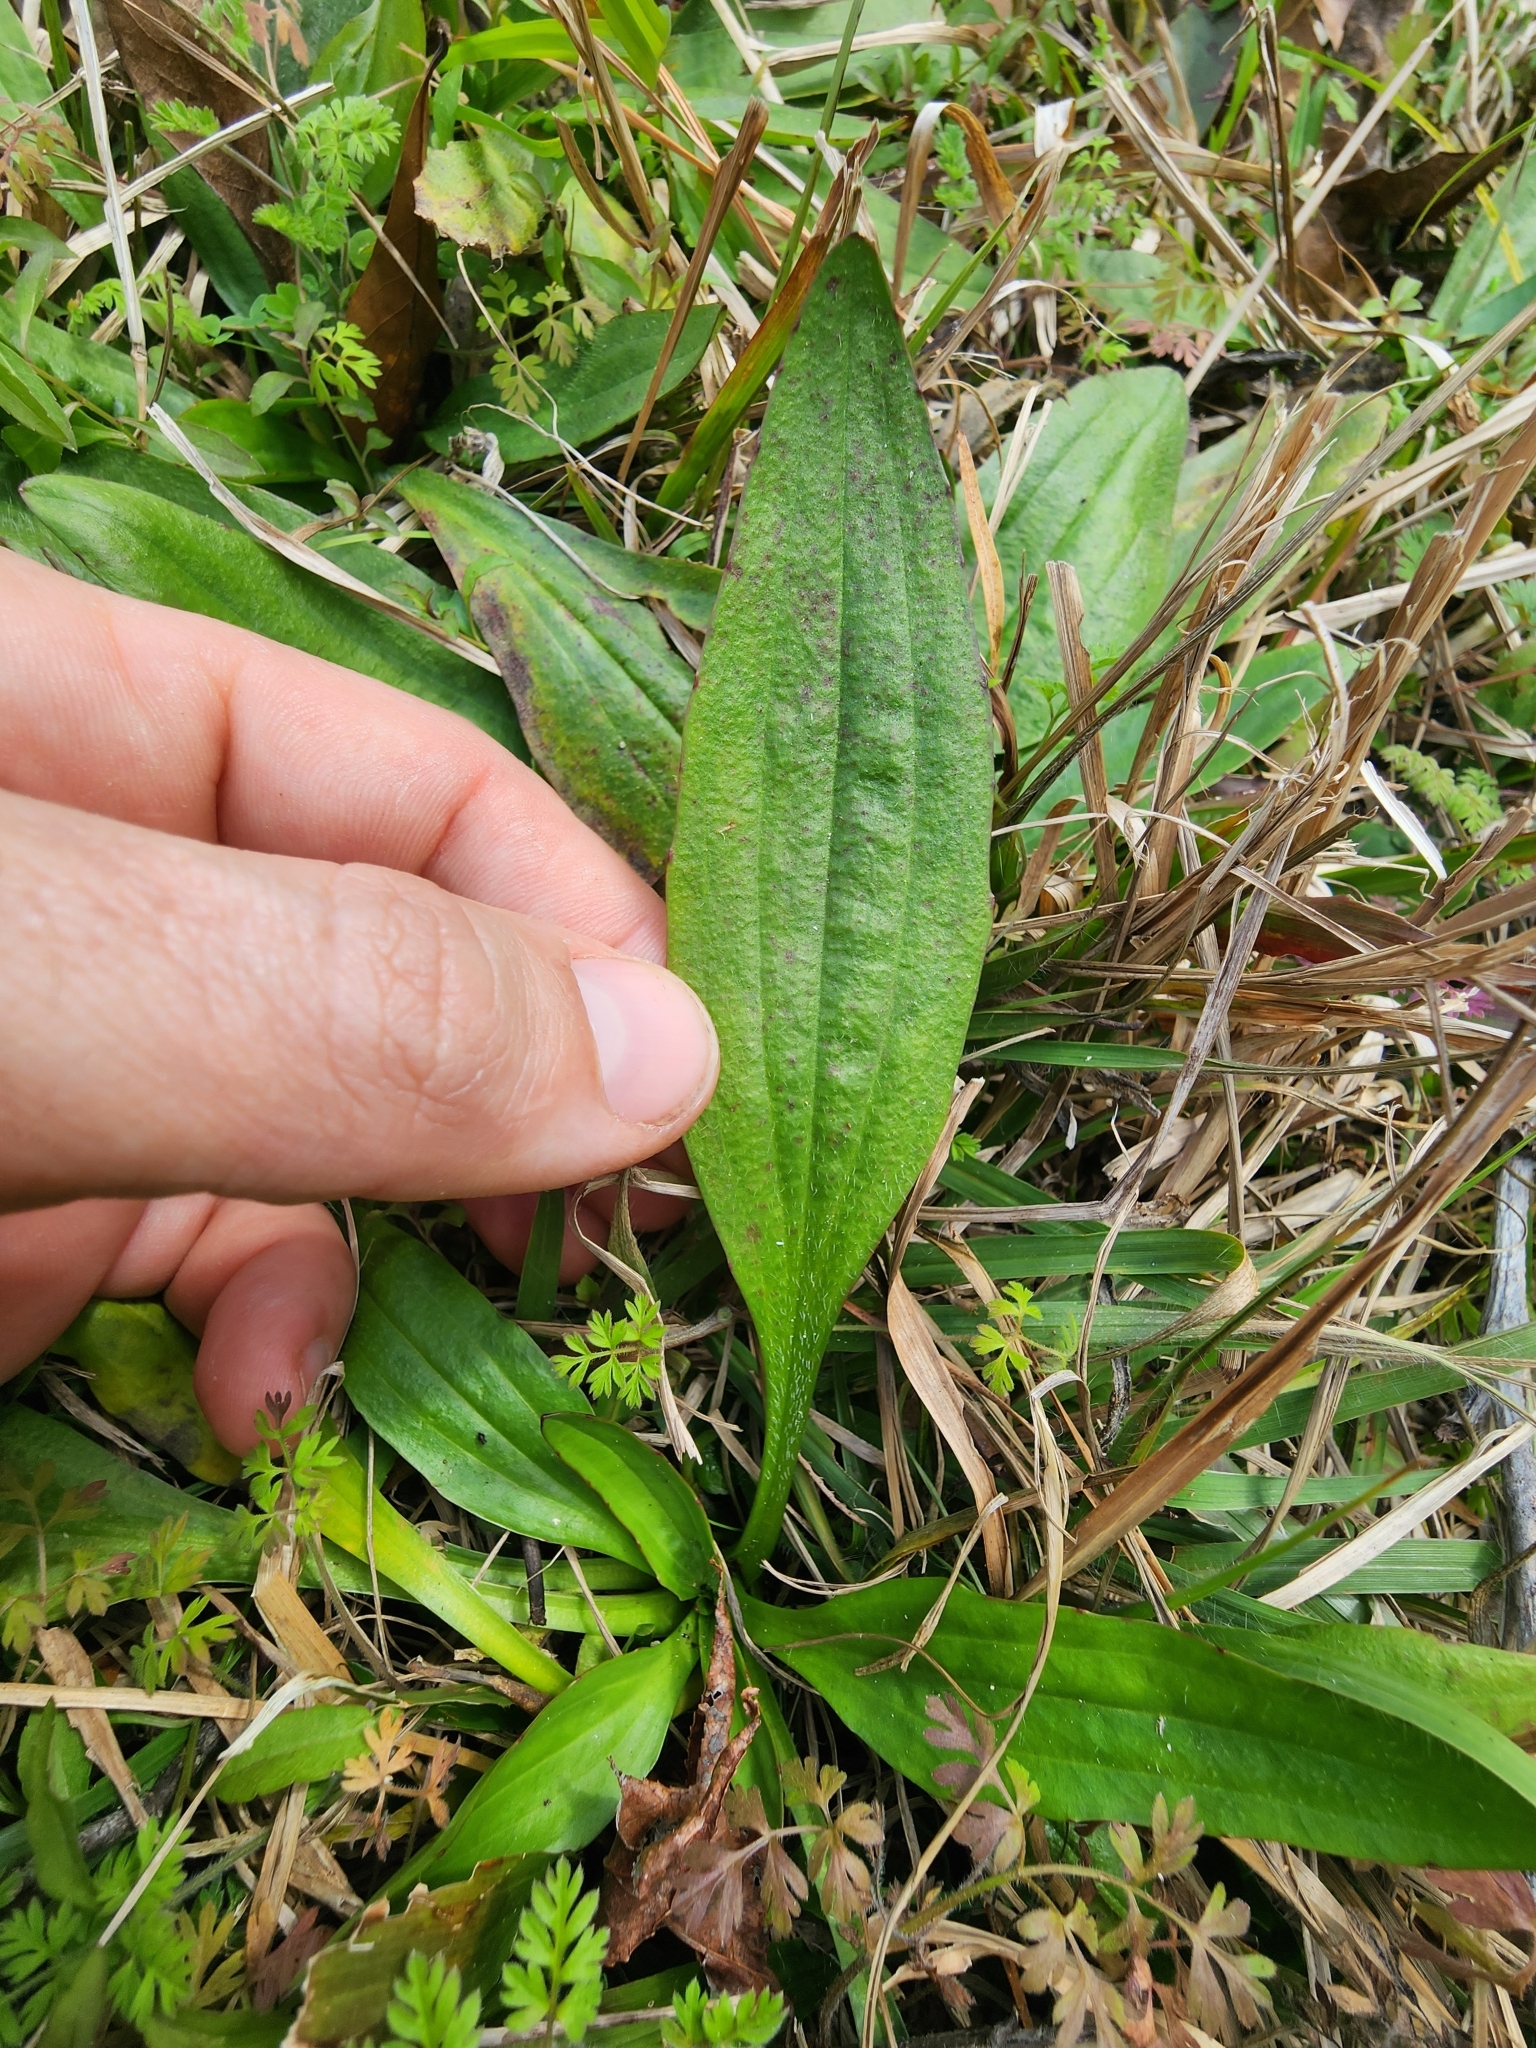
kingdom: Plantae
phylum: Tracheophyta
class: Magnoliopsida
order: Lamiales
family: Plantaginaceae
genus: Plantago
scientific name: Plantago sparsiflora
